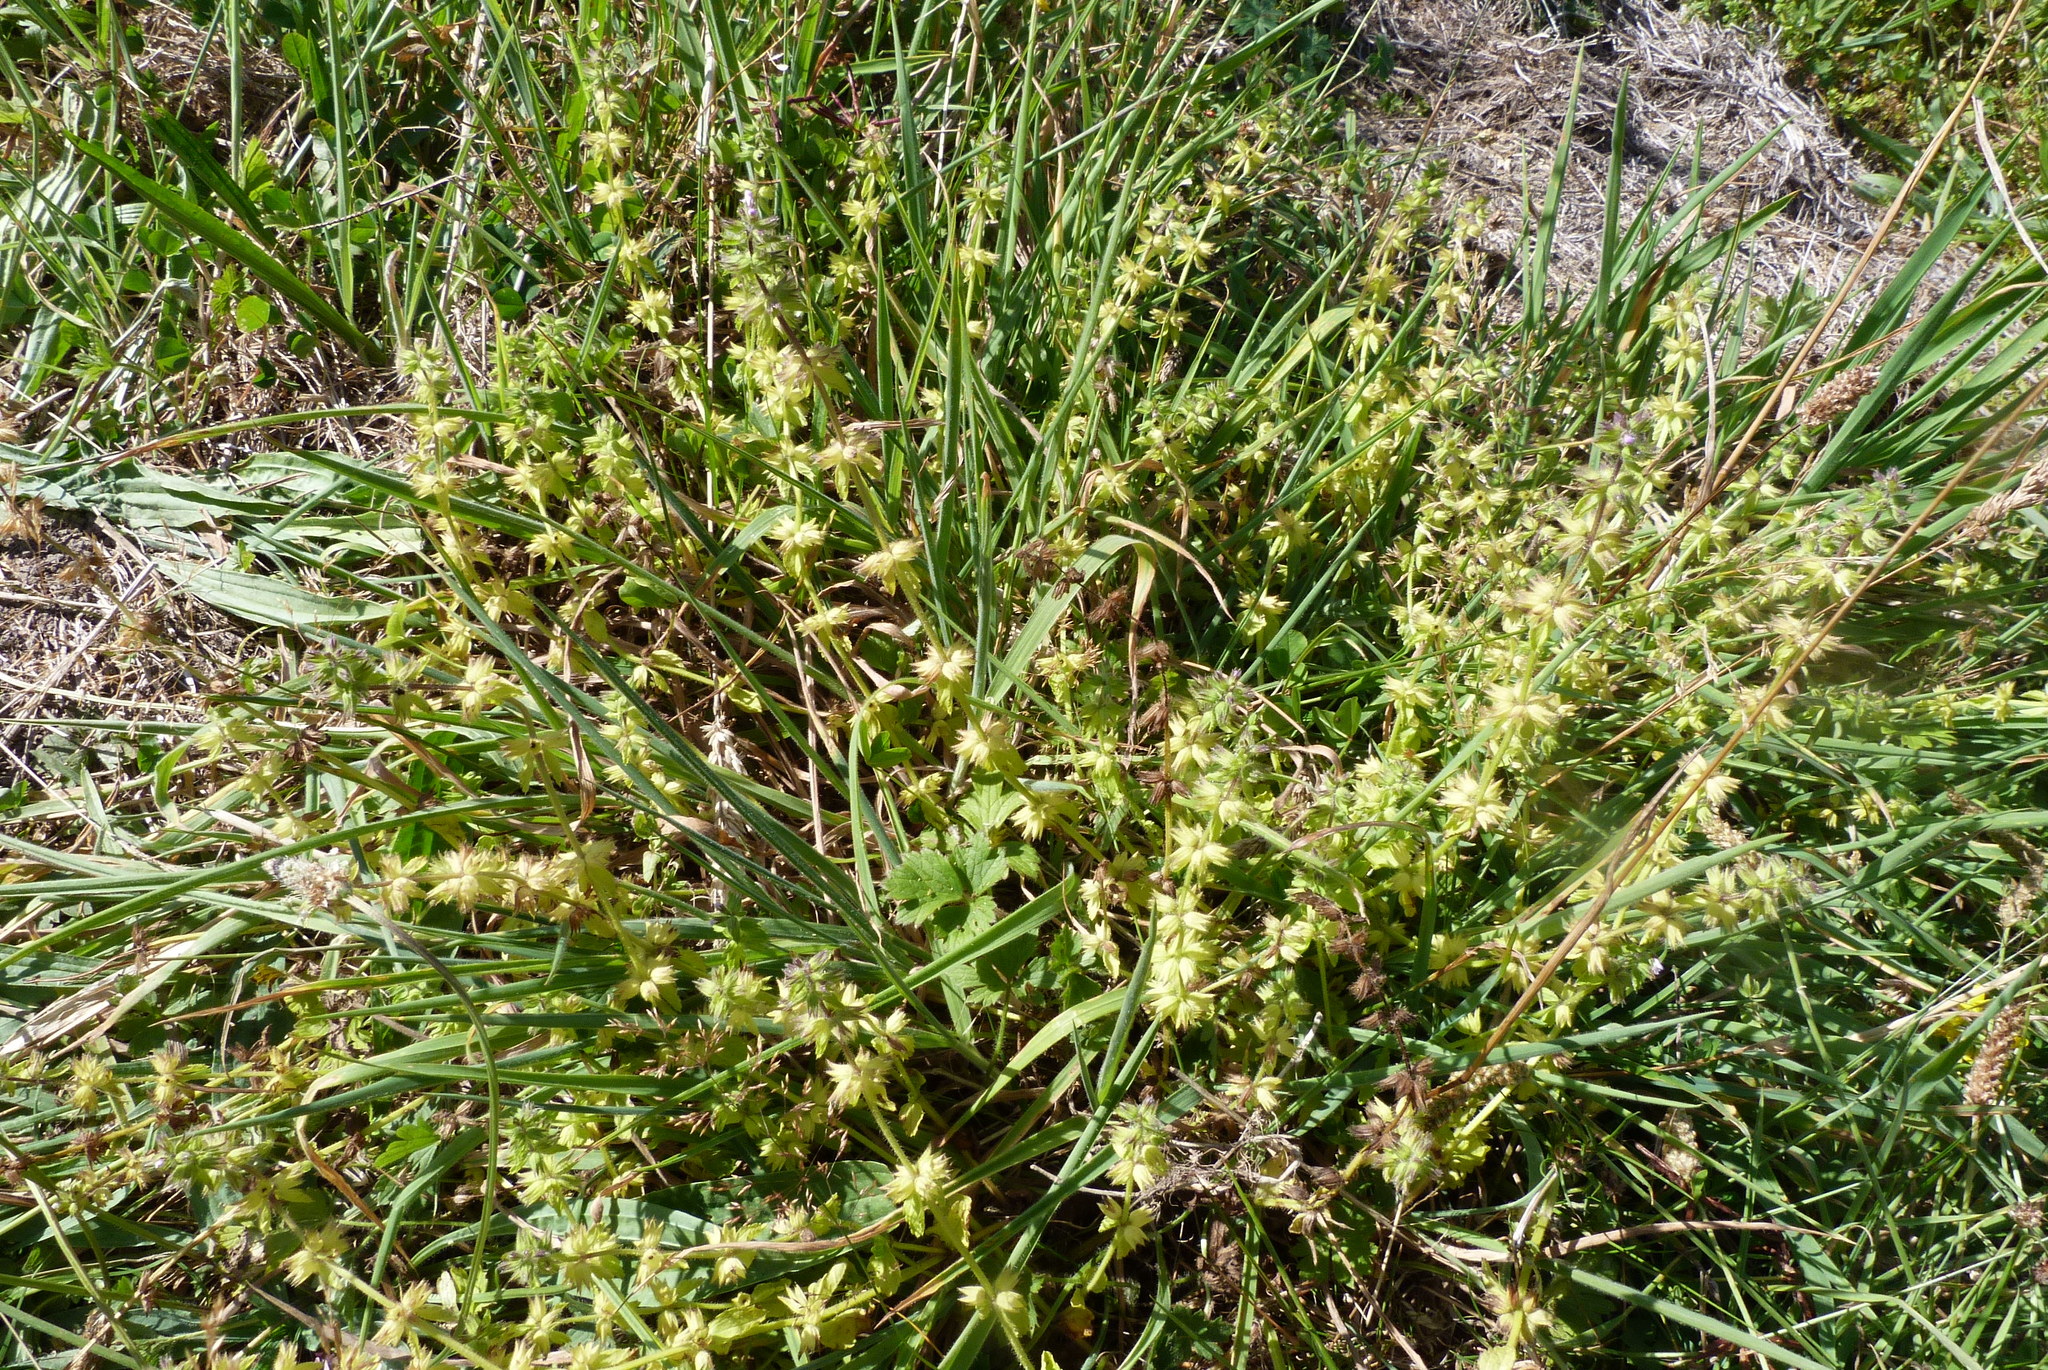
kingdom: Plantae
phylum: Tracheophyta
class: Magnoliopsida
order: Lamiales
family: Lamiaceae
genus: Stachys
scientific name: Stachys arvensis
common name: Field woundwort
